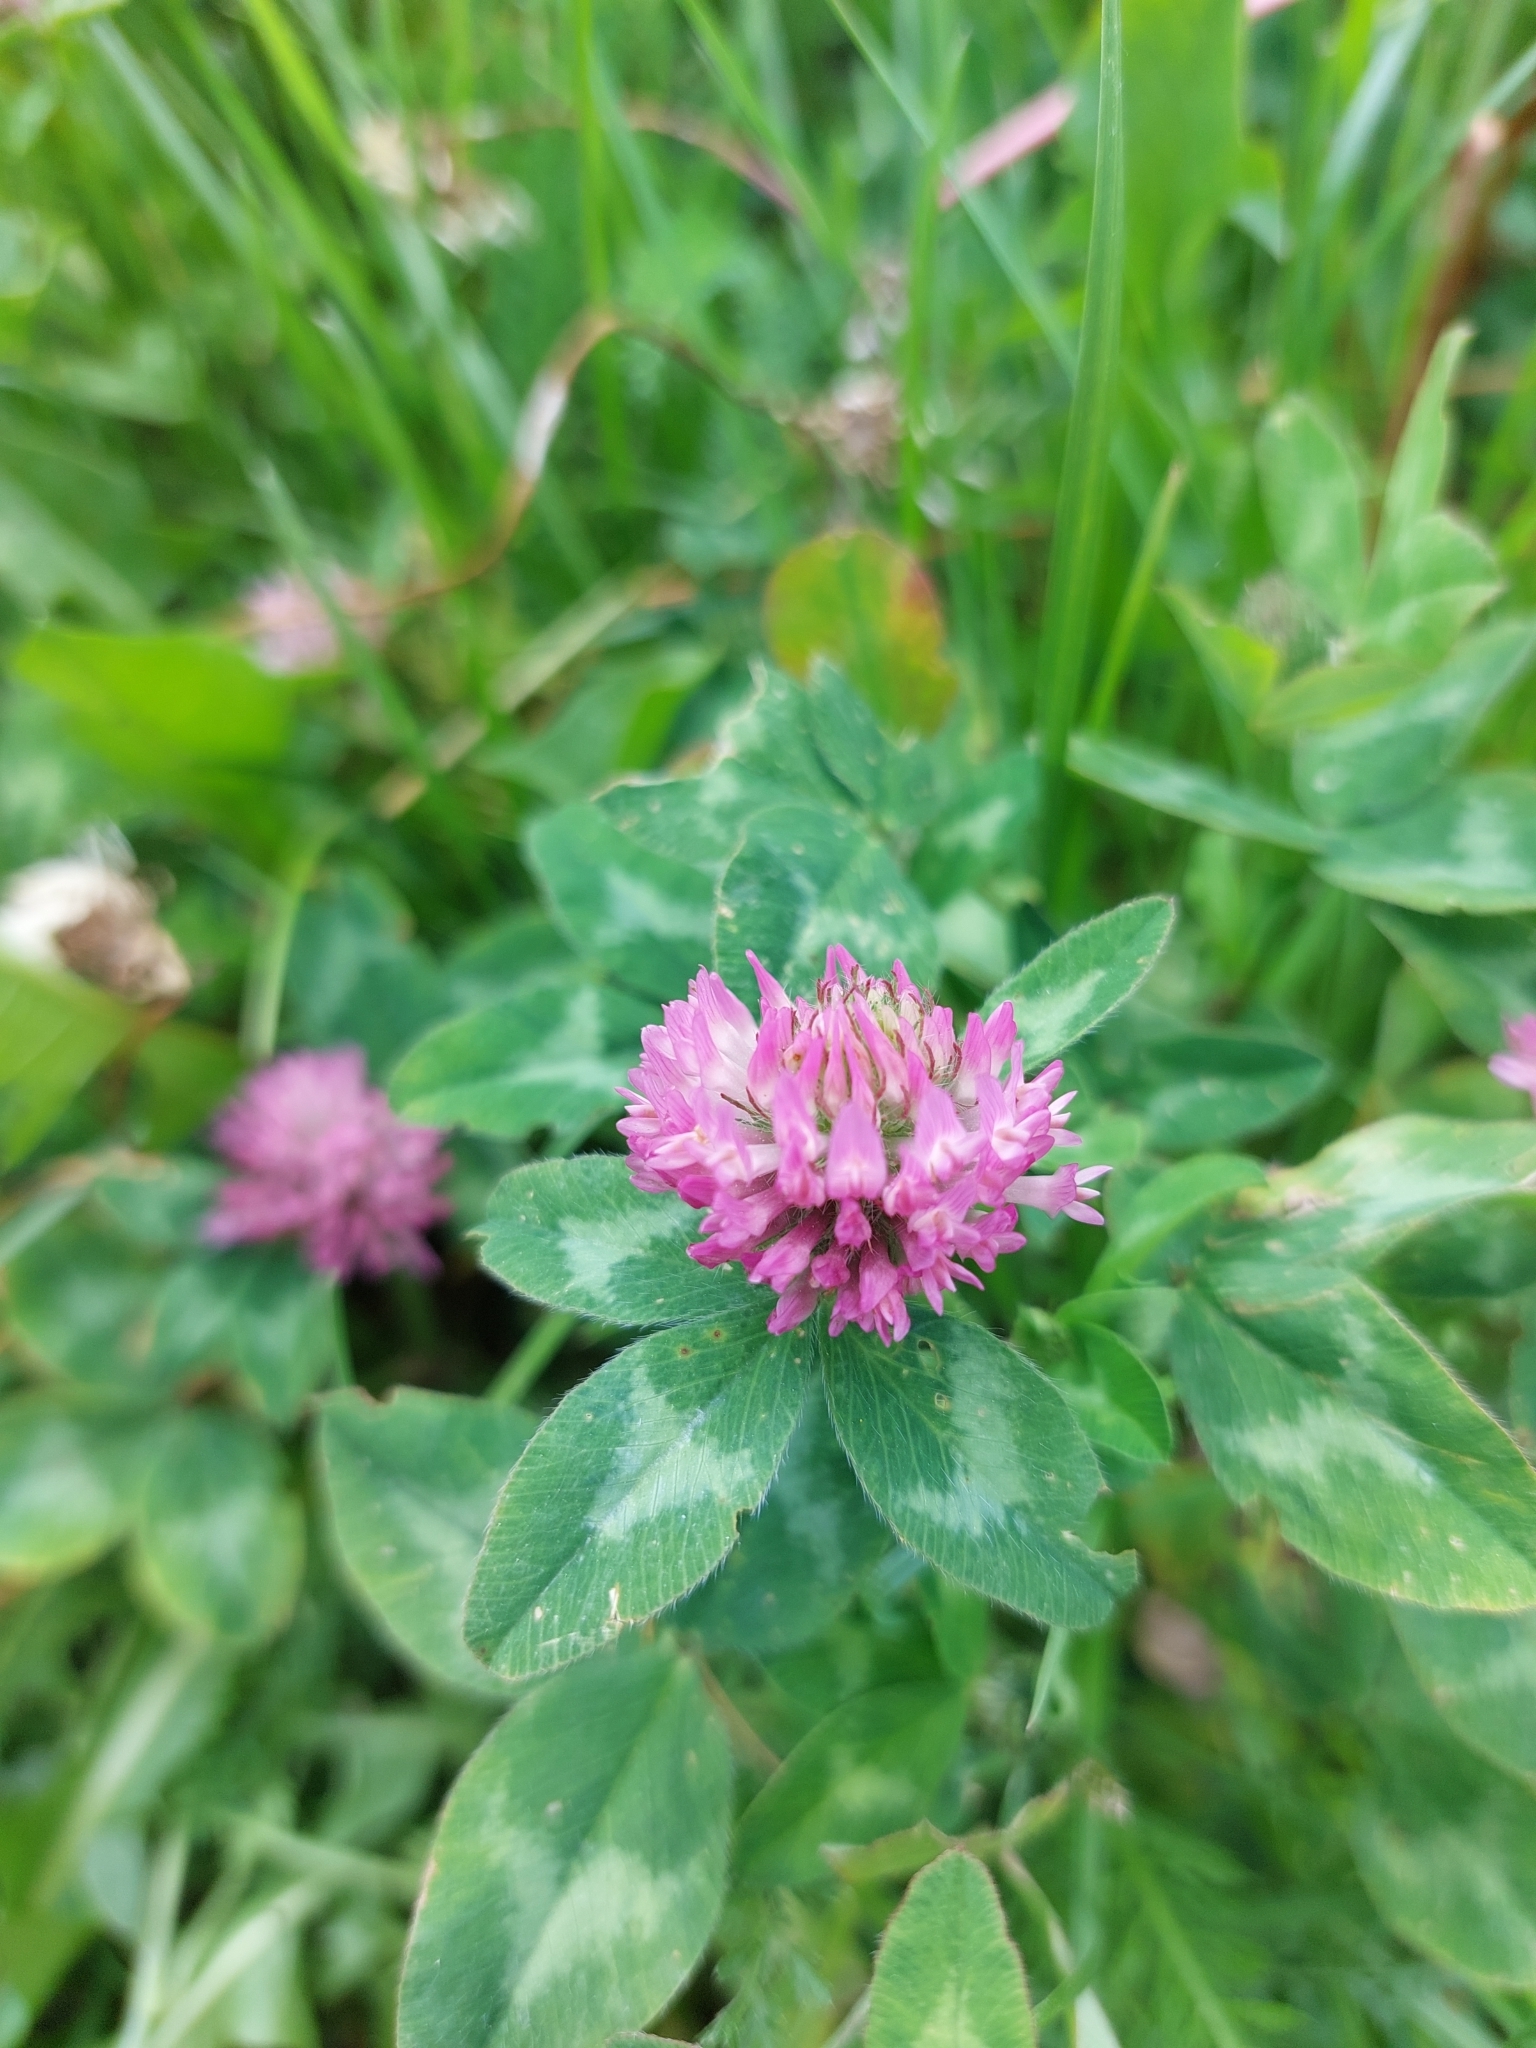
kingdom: Plantae
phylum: Tracheophyta
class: Magnoliopsida
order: Fabales
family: Fabaceae
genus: Trifolium
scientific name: Trifolium pratense
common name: Red clover
